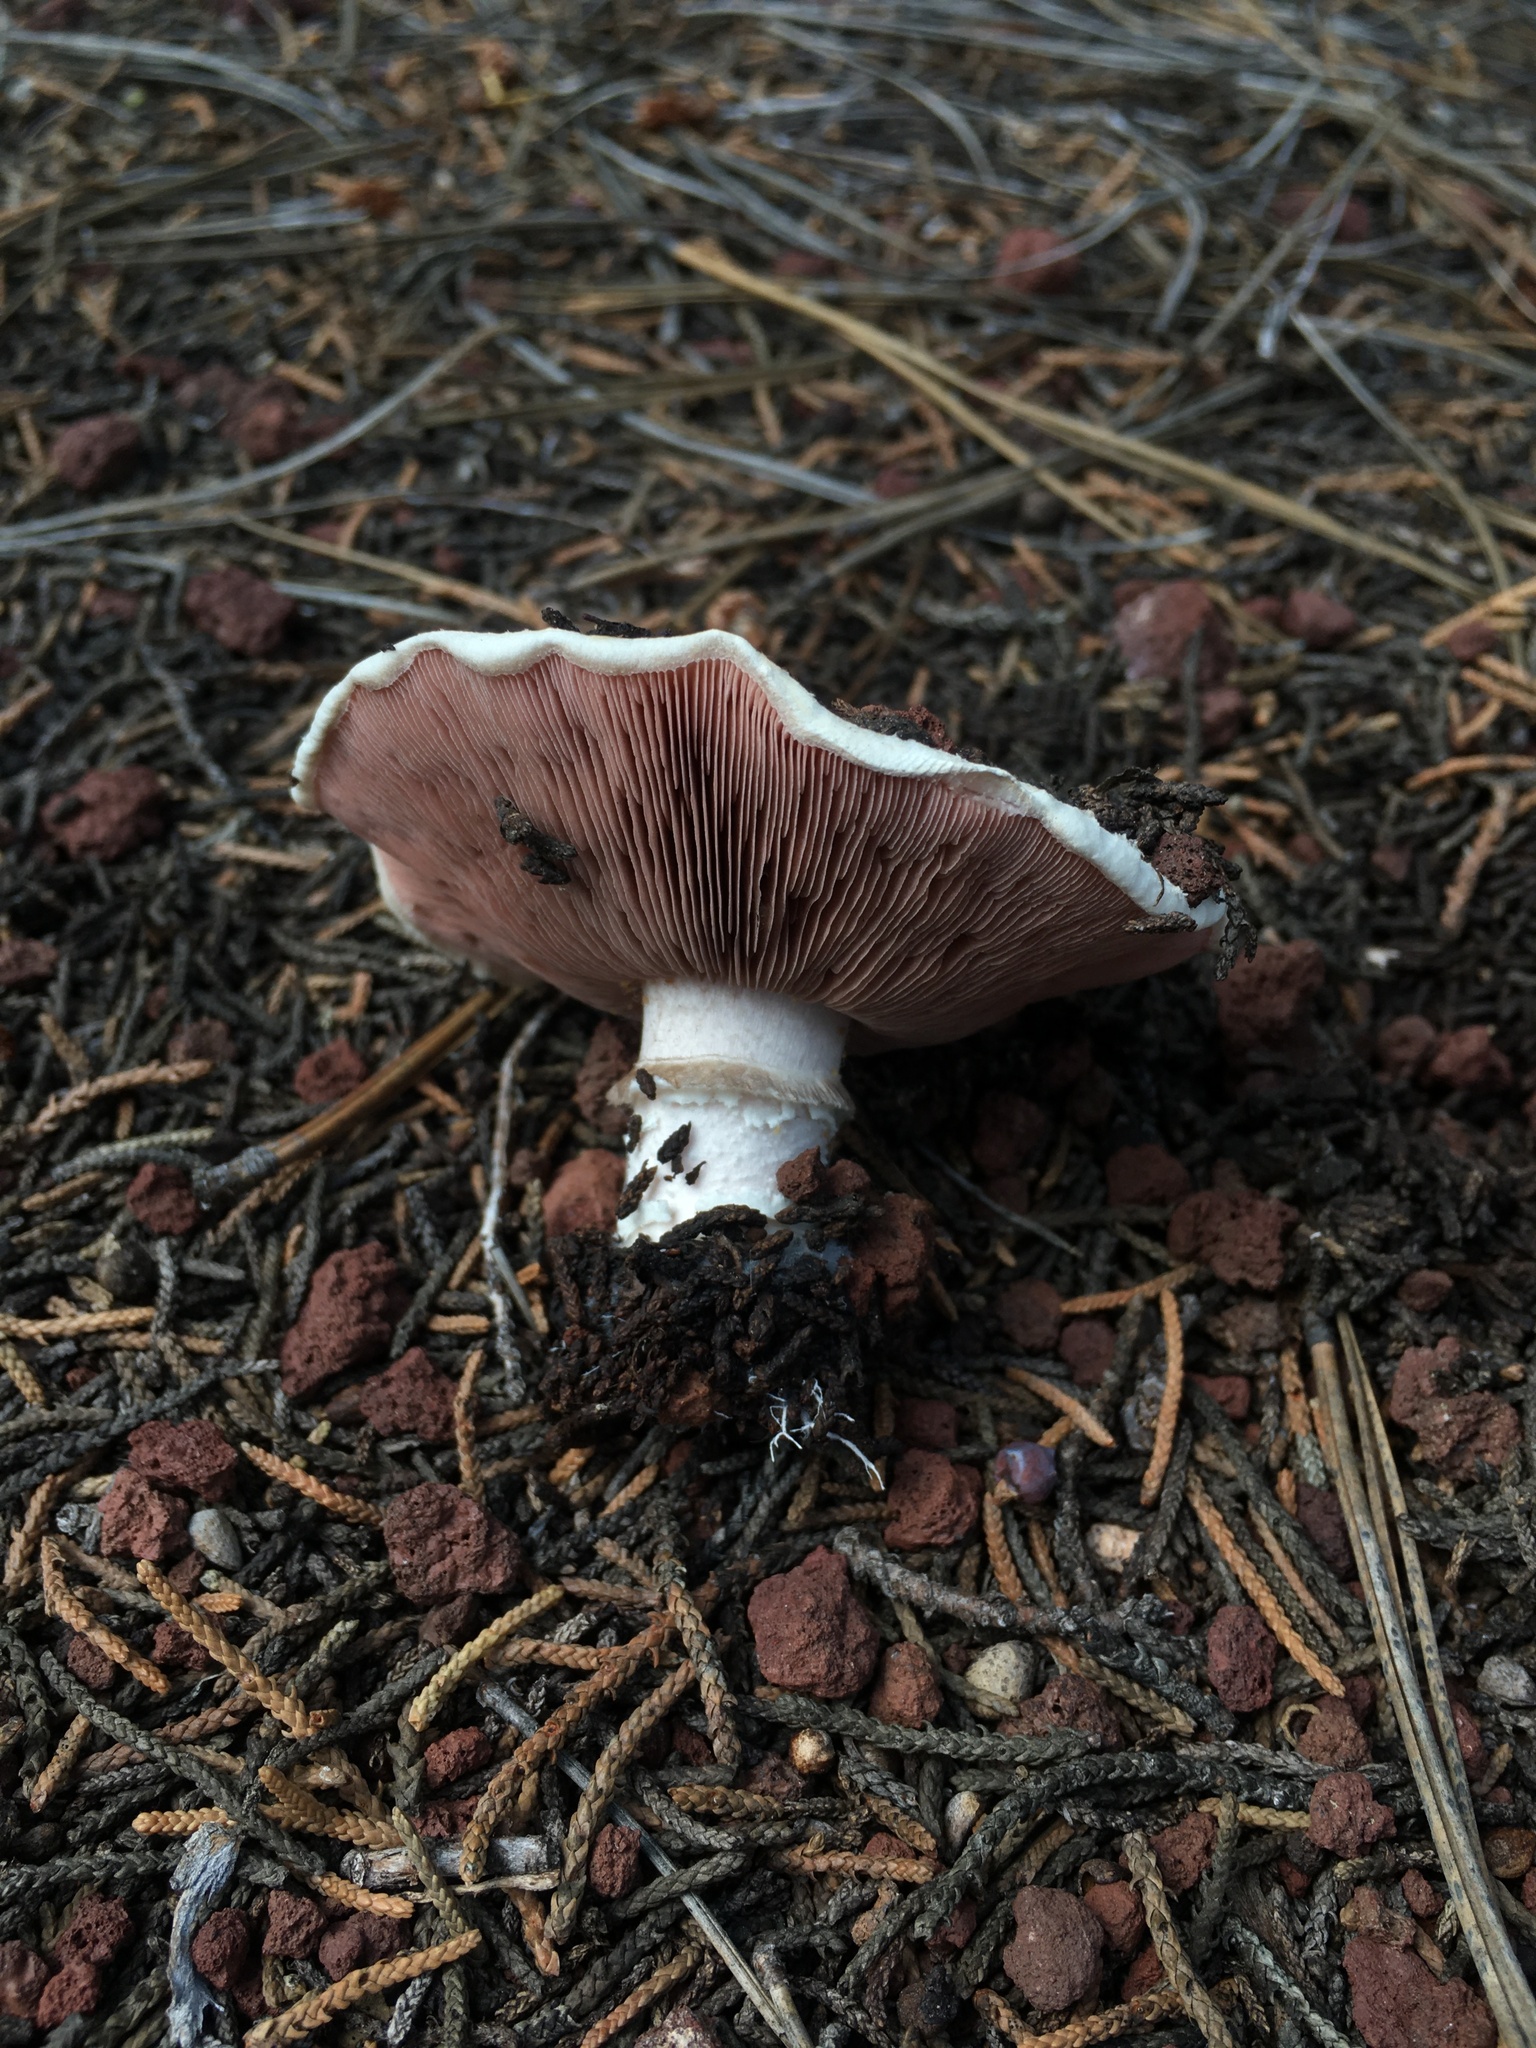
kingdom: Fungi
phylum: Basidiomycota
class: Agaricomycetes
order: Agaricales
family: Agaricaceae
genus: Agaricus
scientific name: Agaricus bitorquis
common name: Pavement mushroom
